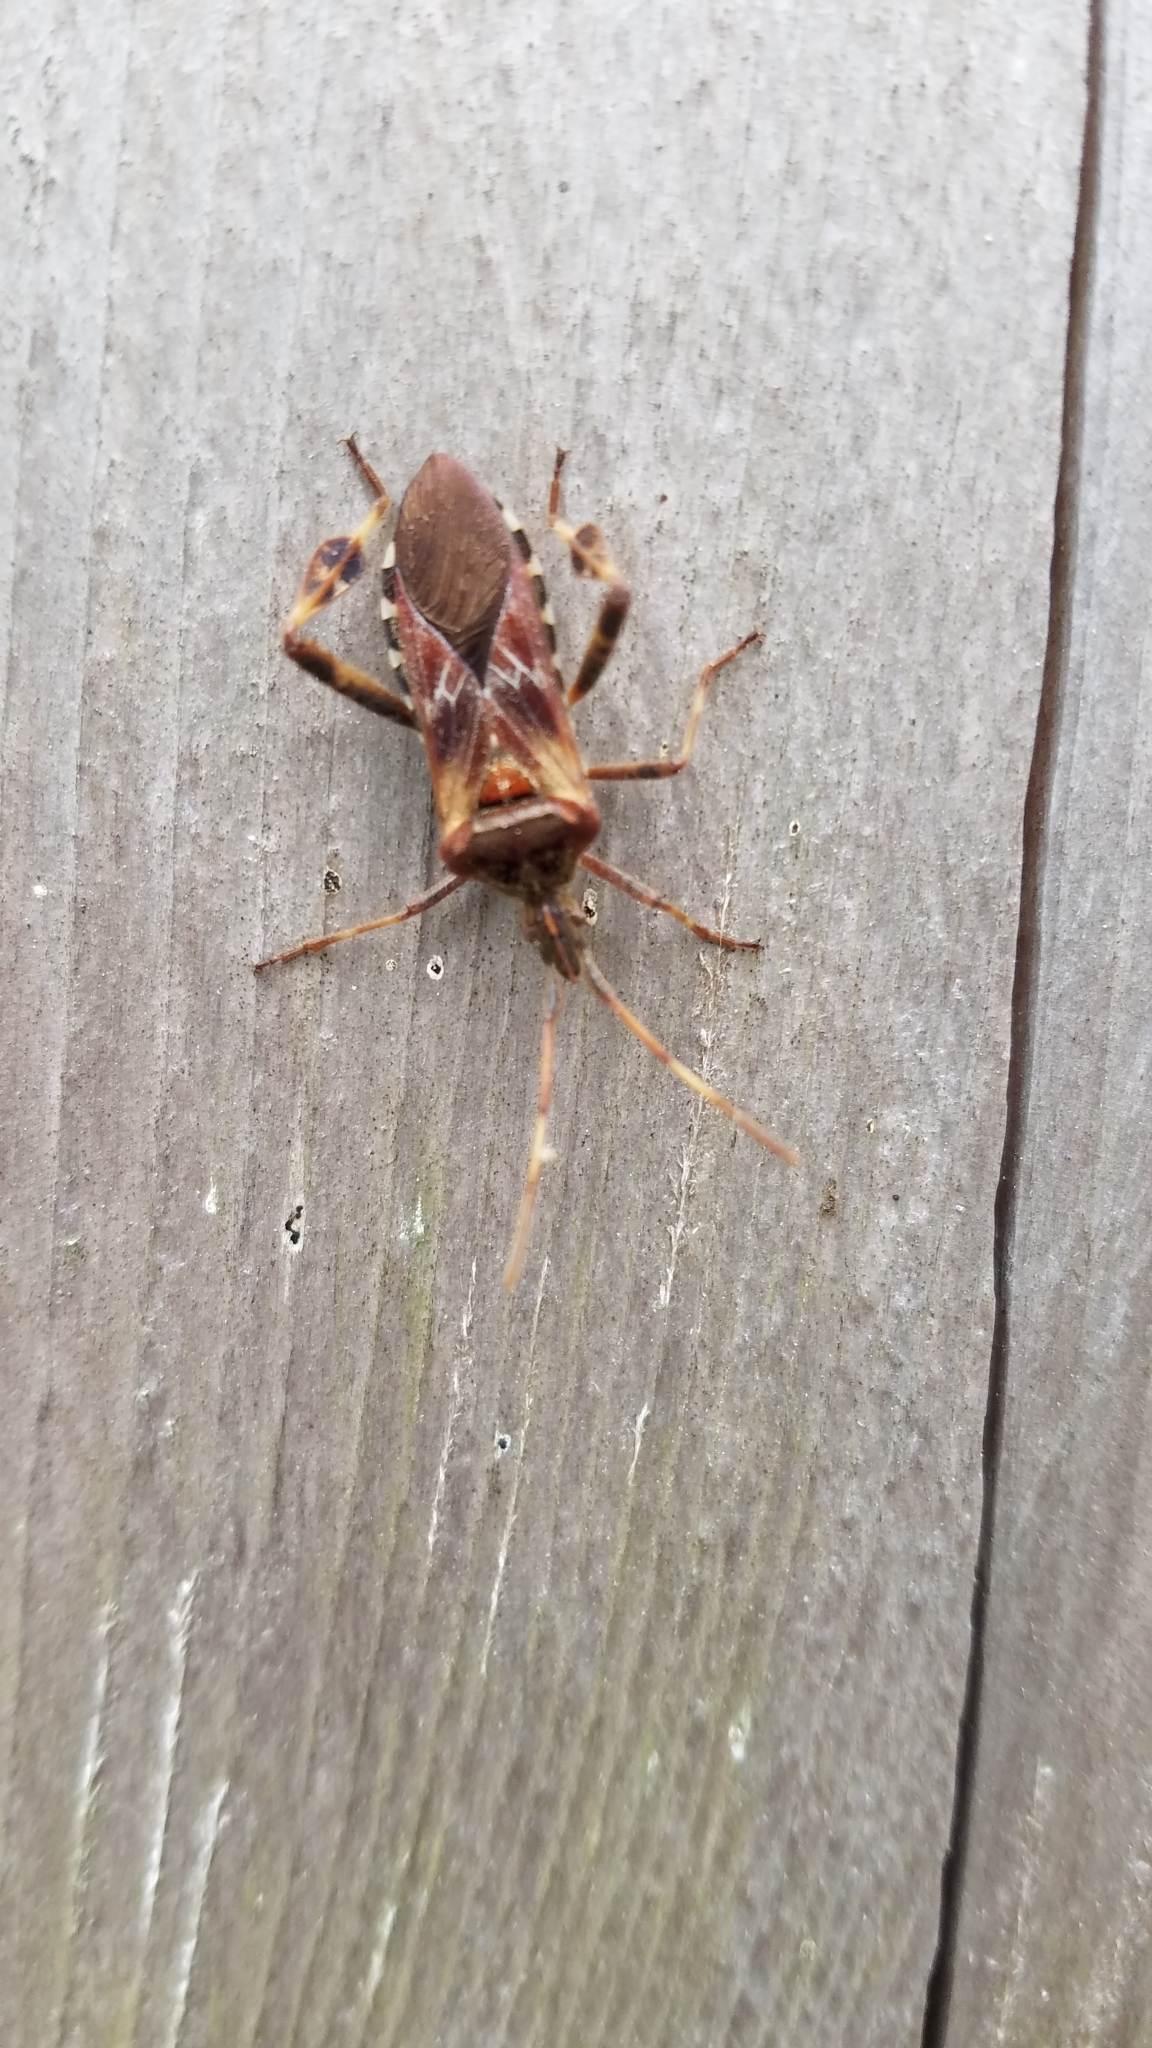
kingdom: Animalia
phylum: Arthropoda
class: Insecta
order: Hemiptera
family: Coreidae
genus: Leptoglossus
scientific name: Leptoglossus occidentalis
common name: Western conifer-seed bug
